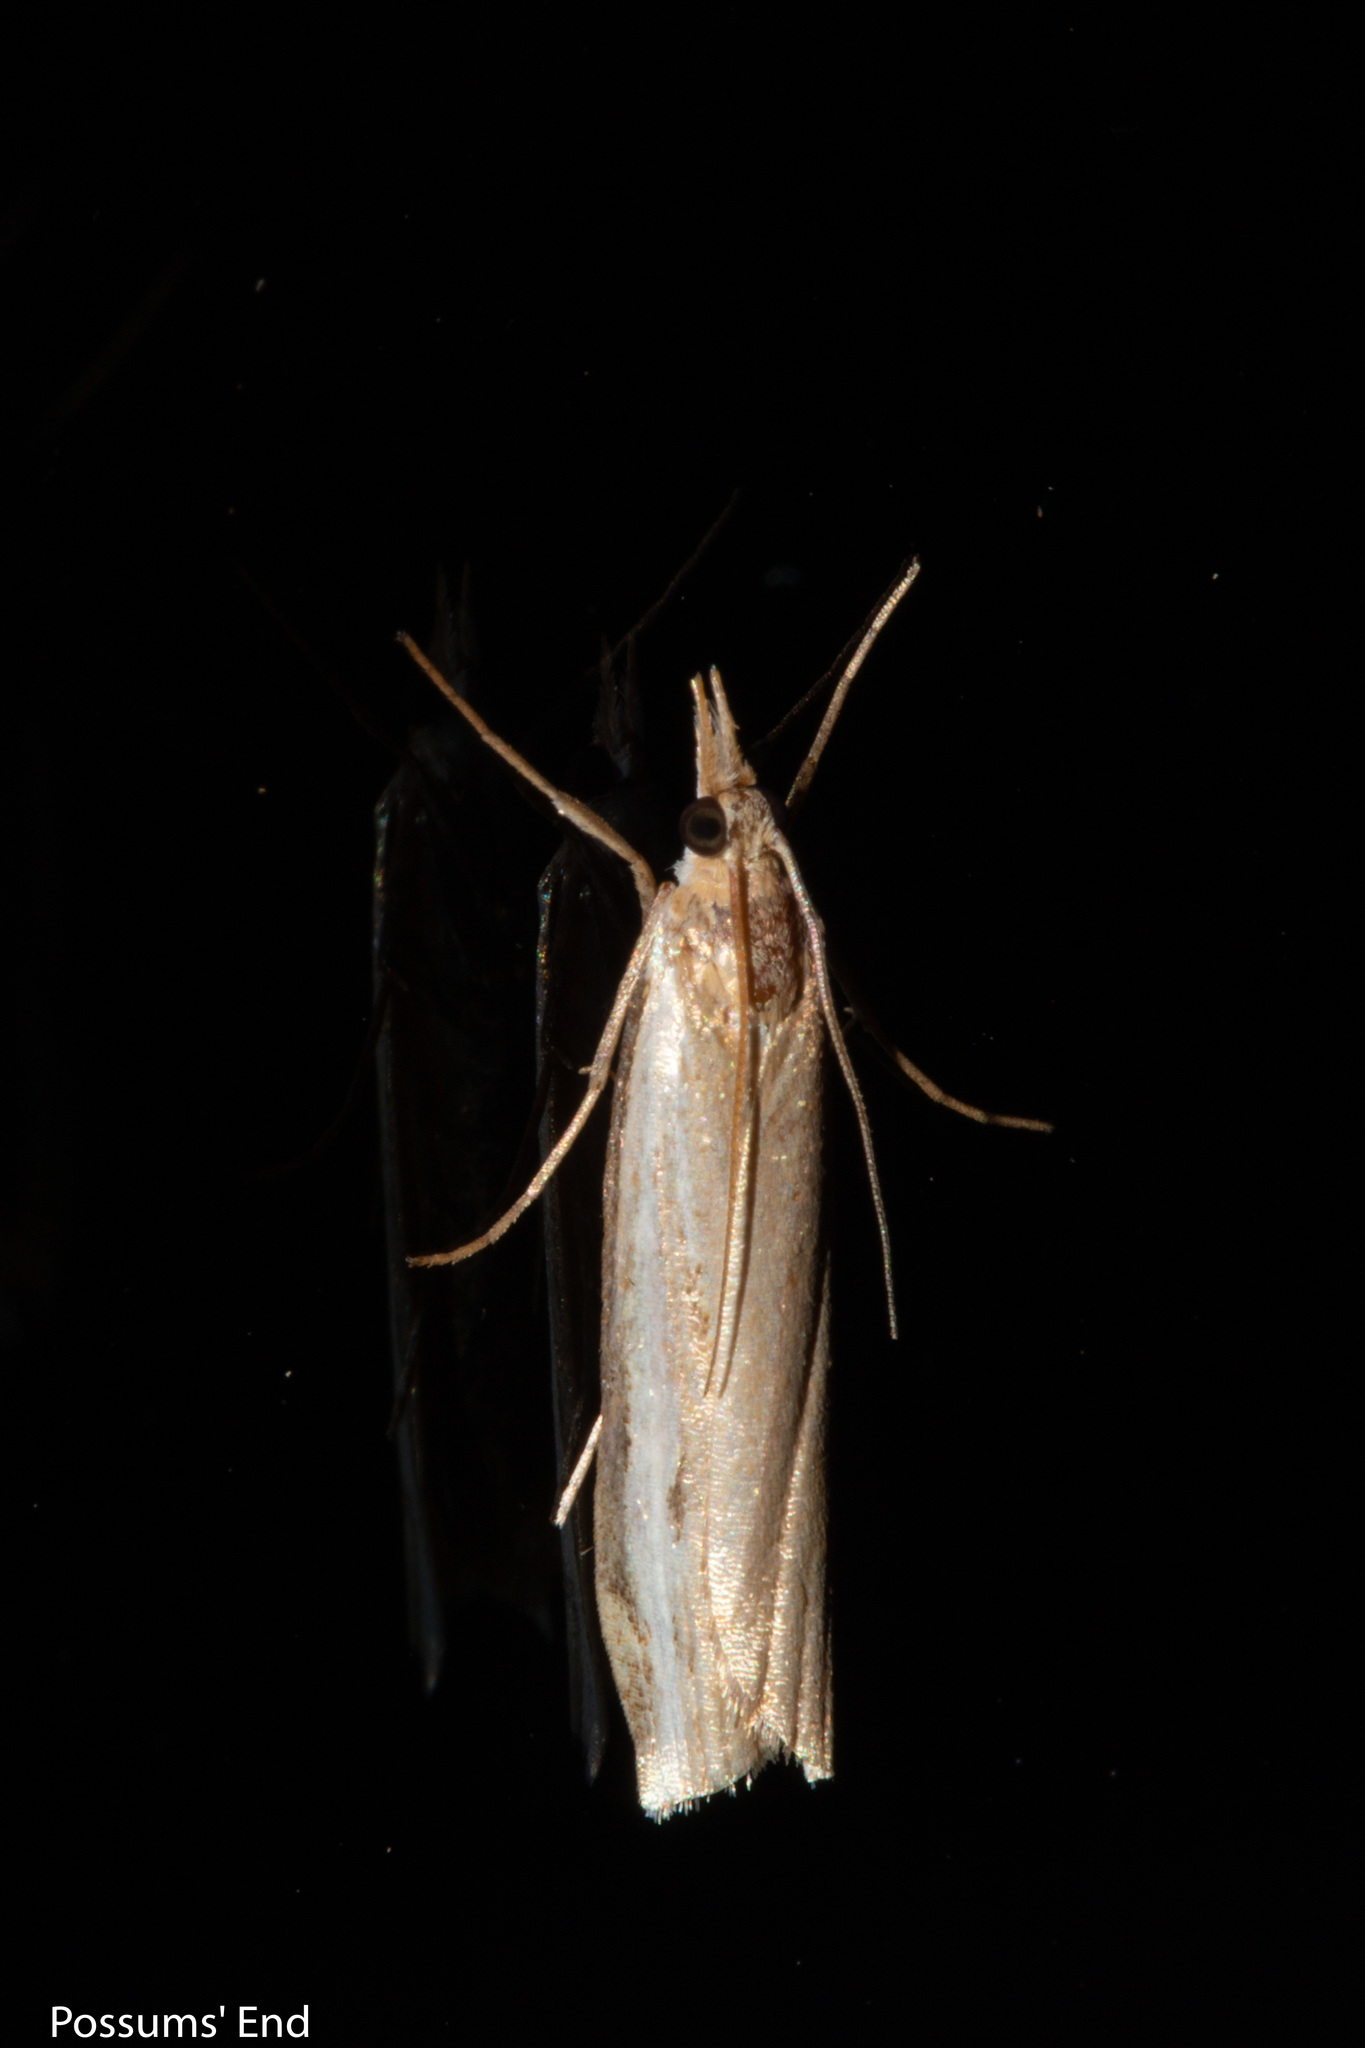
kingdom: Animalia
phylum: Arthropoda
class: Insecta
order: Lepidoptera
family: Crambidae
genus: Orocrambus
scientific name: Orocrambus flexuosellus
